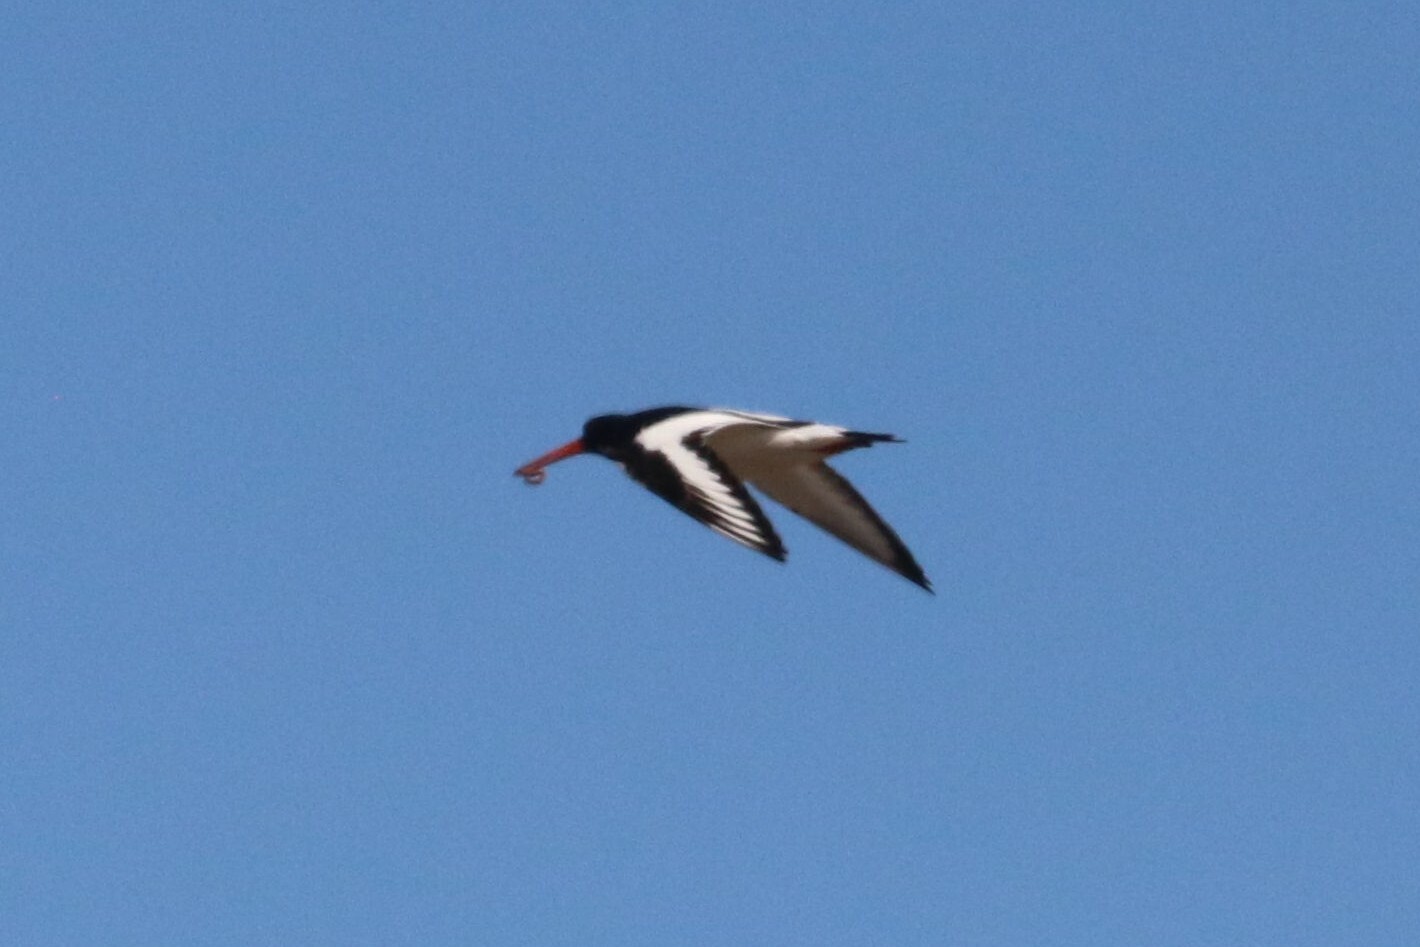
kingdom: Animalia
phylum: Chordata
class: Aves
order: Charadriiformes
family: Haematopodidae
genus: Haematopus
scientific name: Haematopus ostralegus
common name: Eurasian oystercatcher
